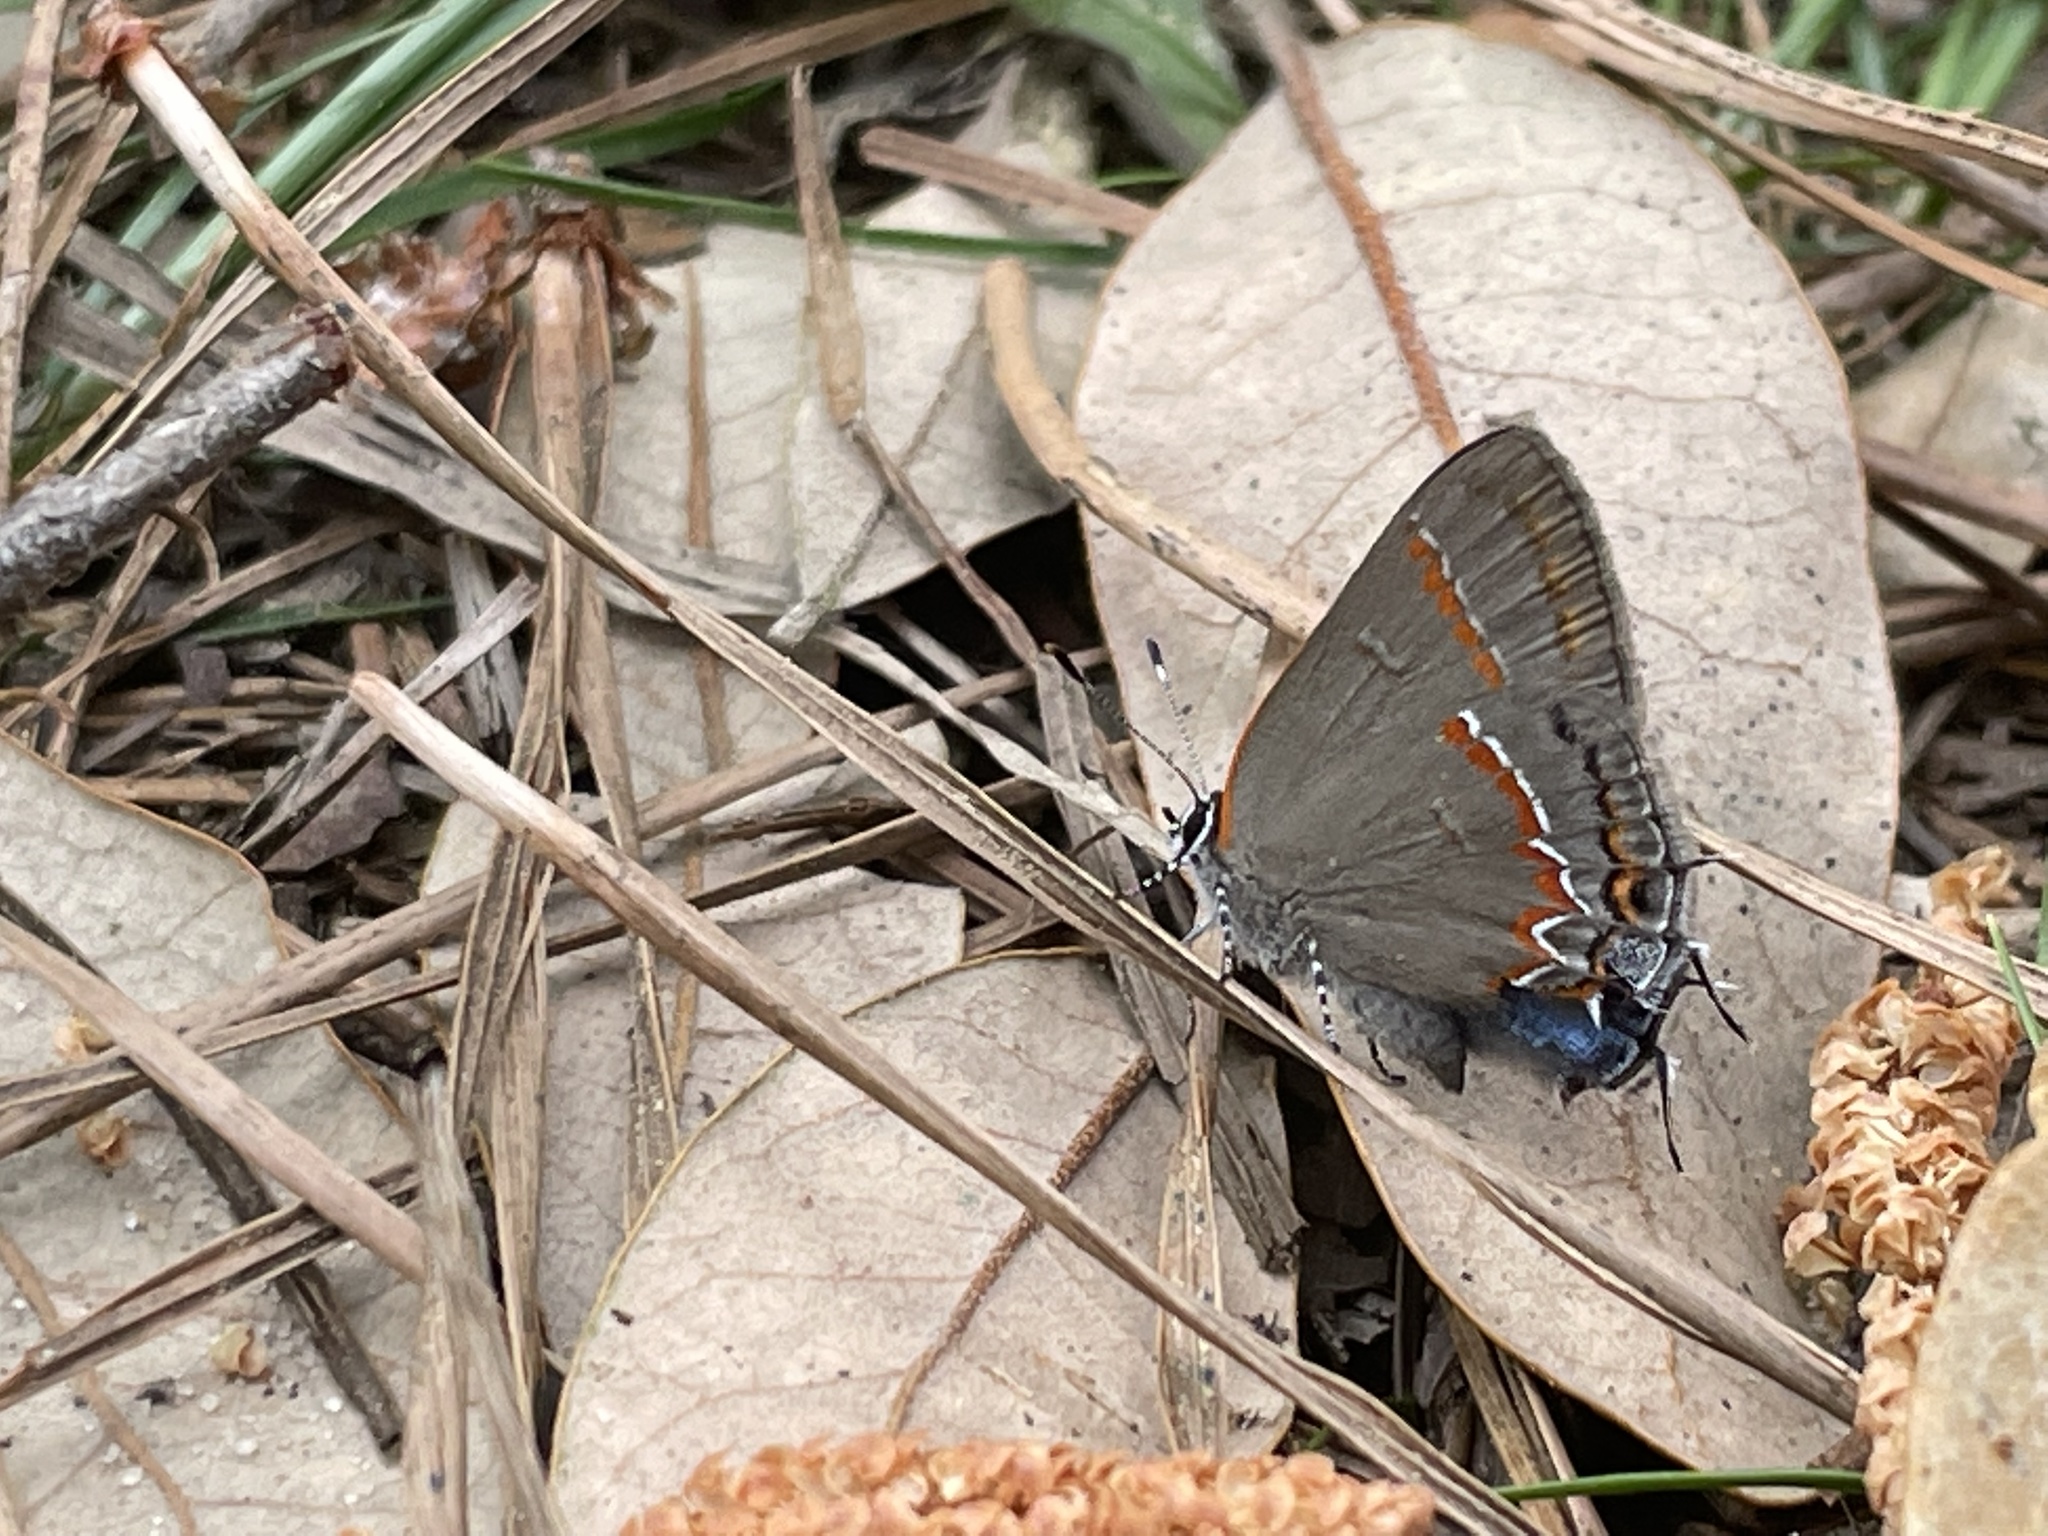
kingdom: Animalia
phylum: Arthropoda
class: Insecta
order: Lepidoptera
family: Lycaenidae
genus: Calycopis
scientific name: Calycopis cecrops
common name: Red-banded hairstreak
